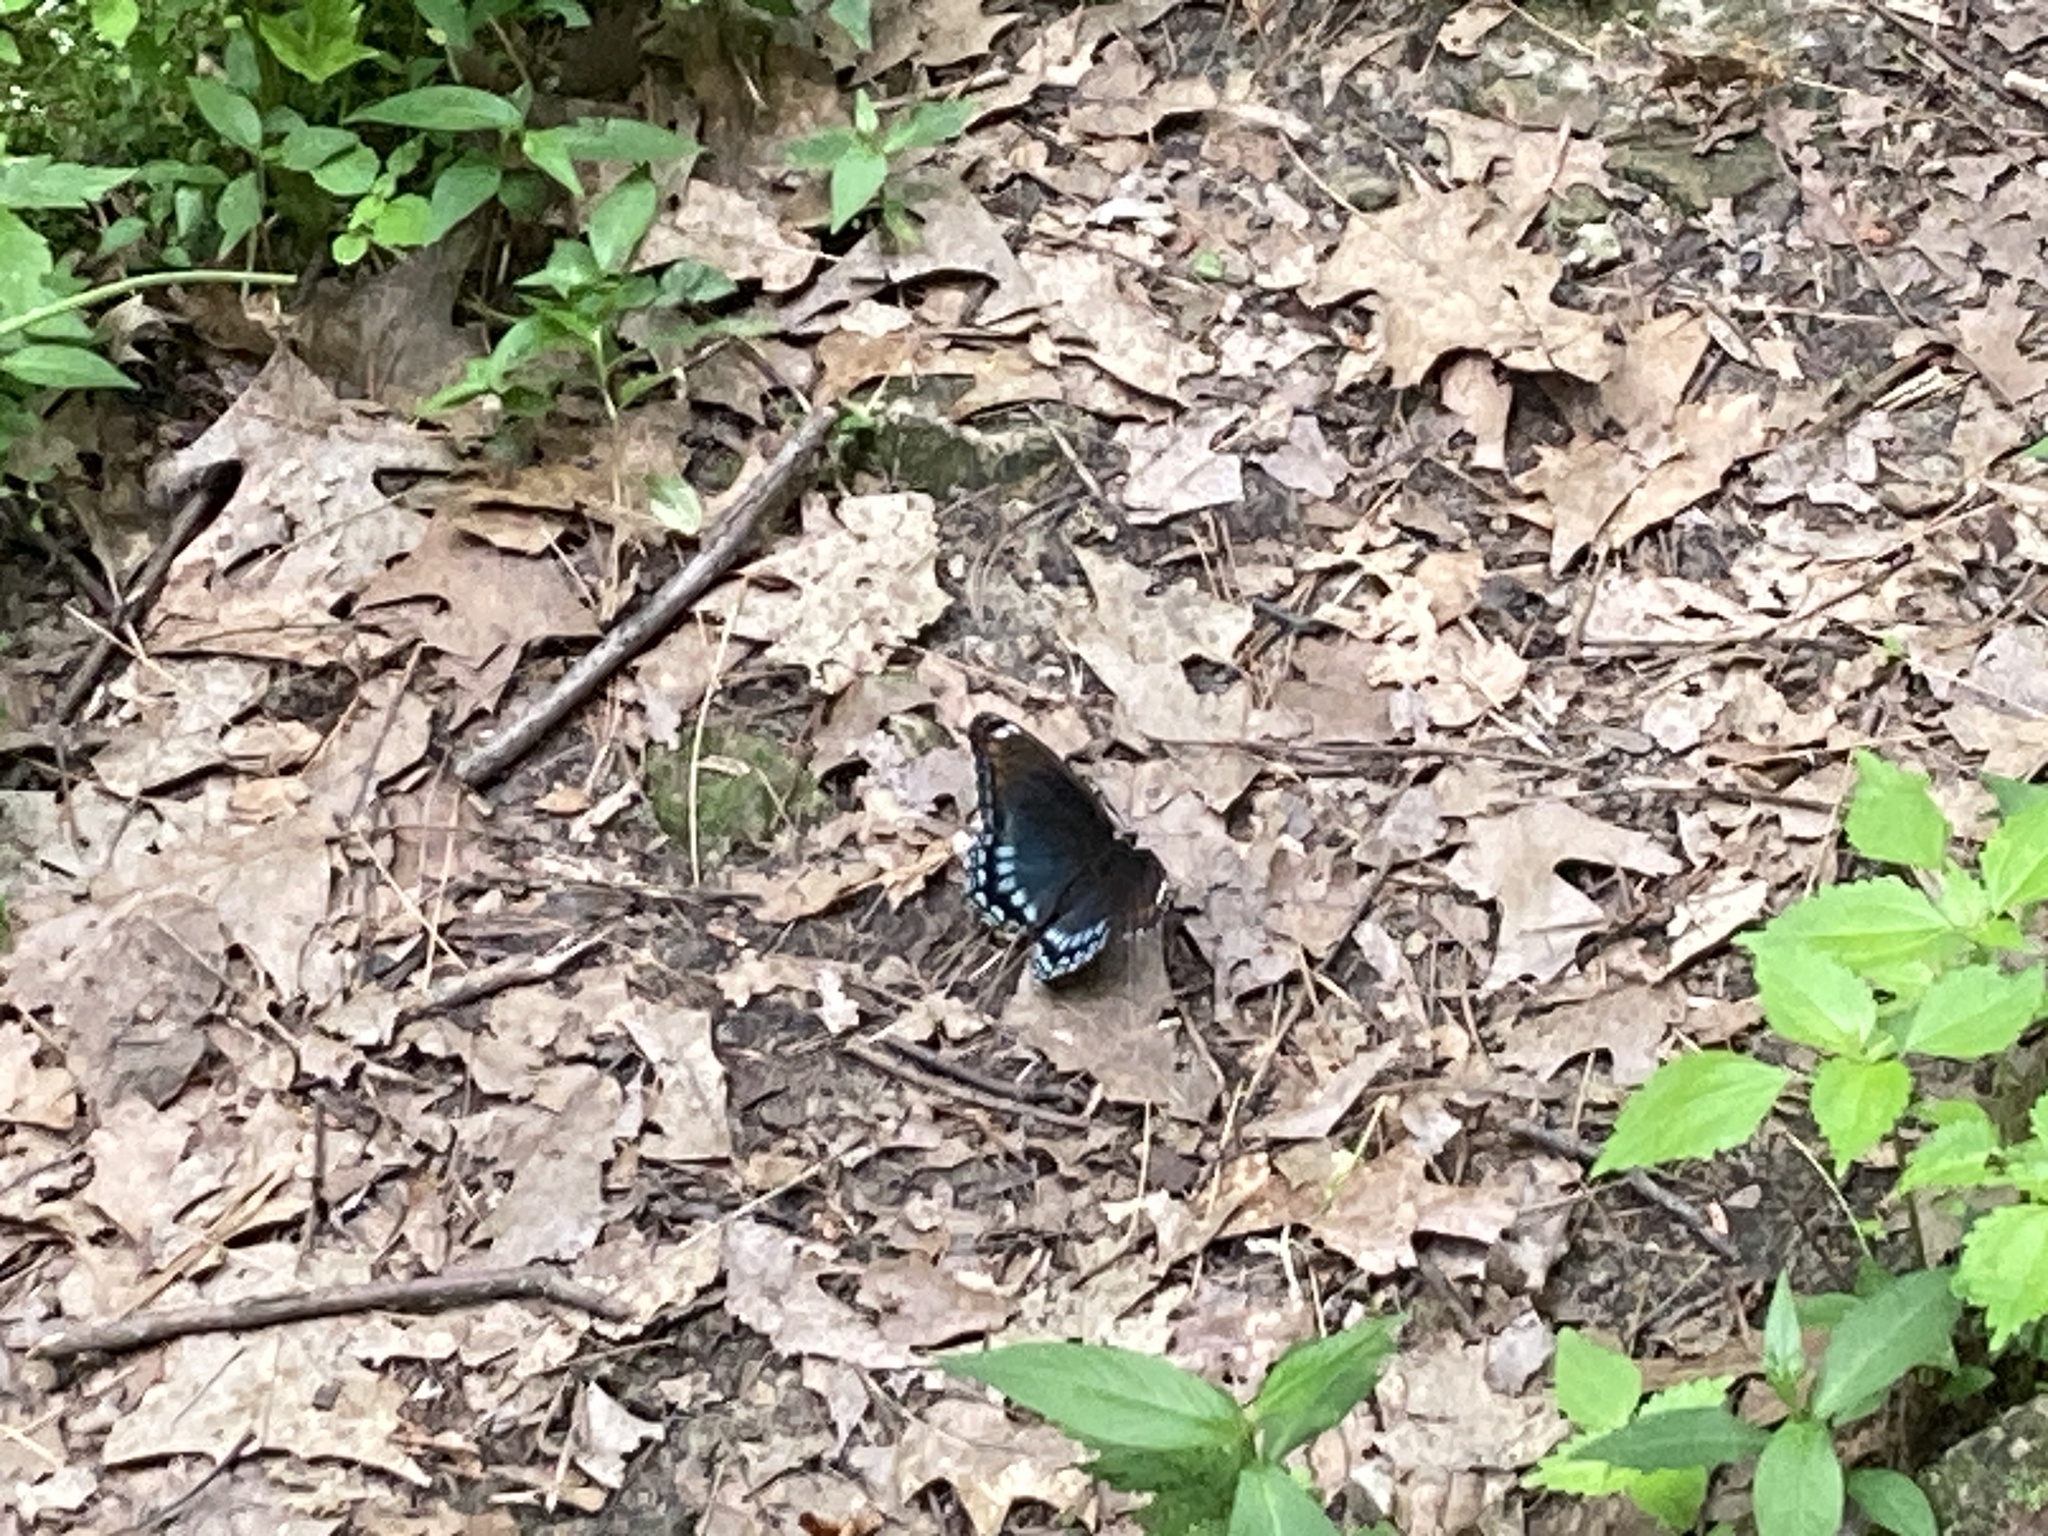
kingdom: Animalia
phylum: Arthropoda
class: Insecta
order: Lepidoptera
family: Nymphalidae
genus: Limenitis
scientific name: Limenitis arthemis
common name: Red-spotted admiral
